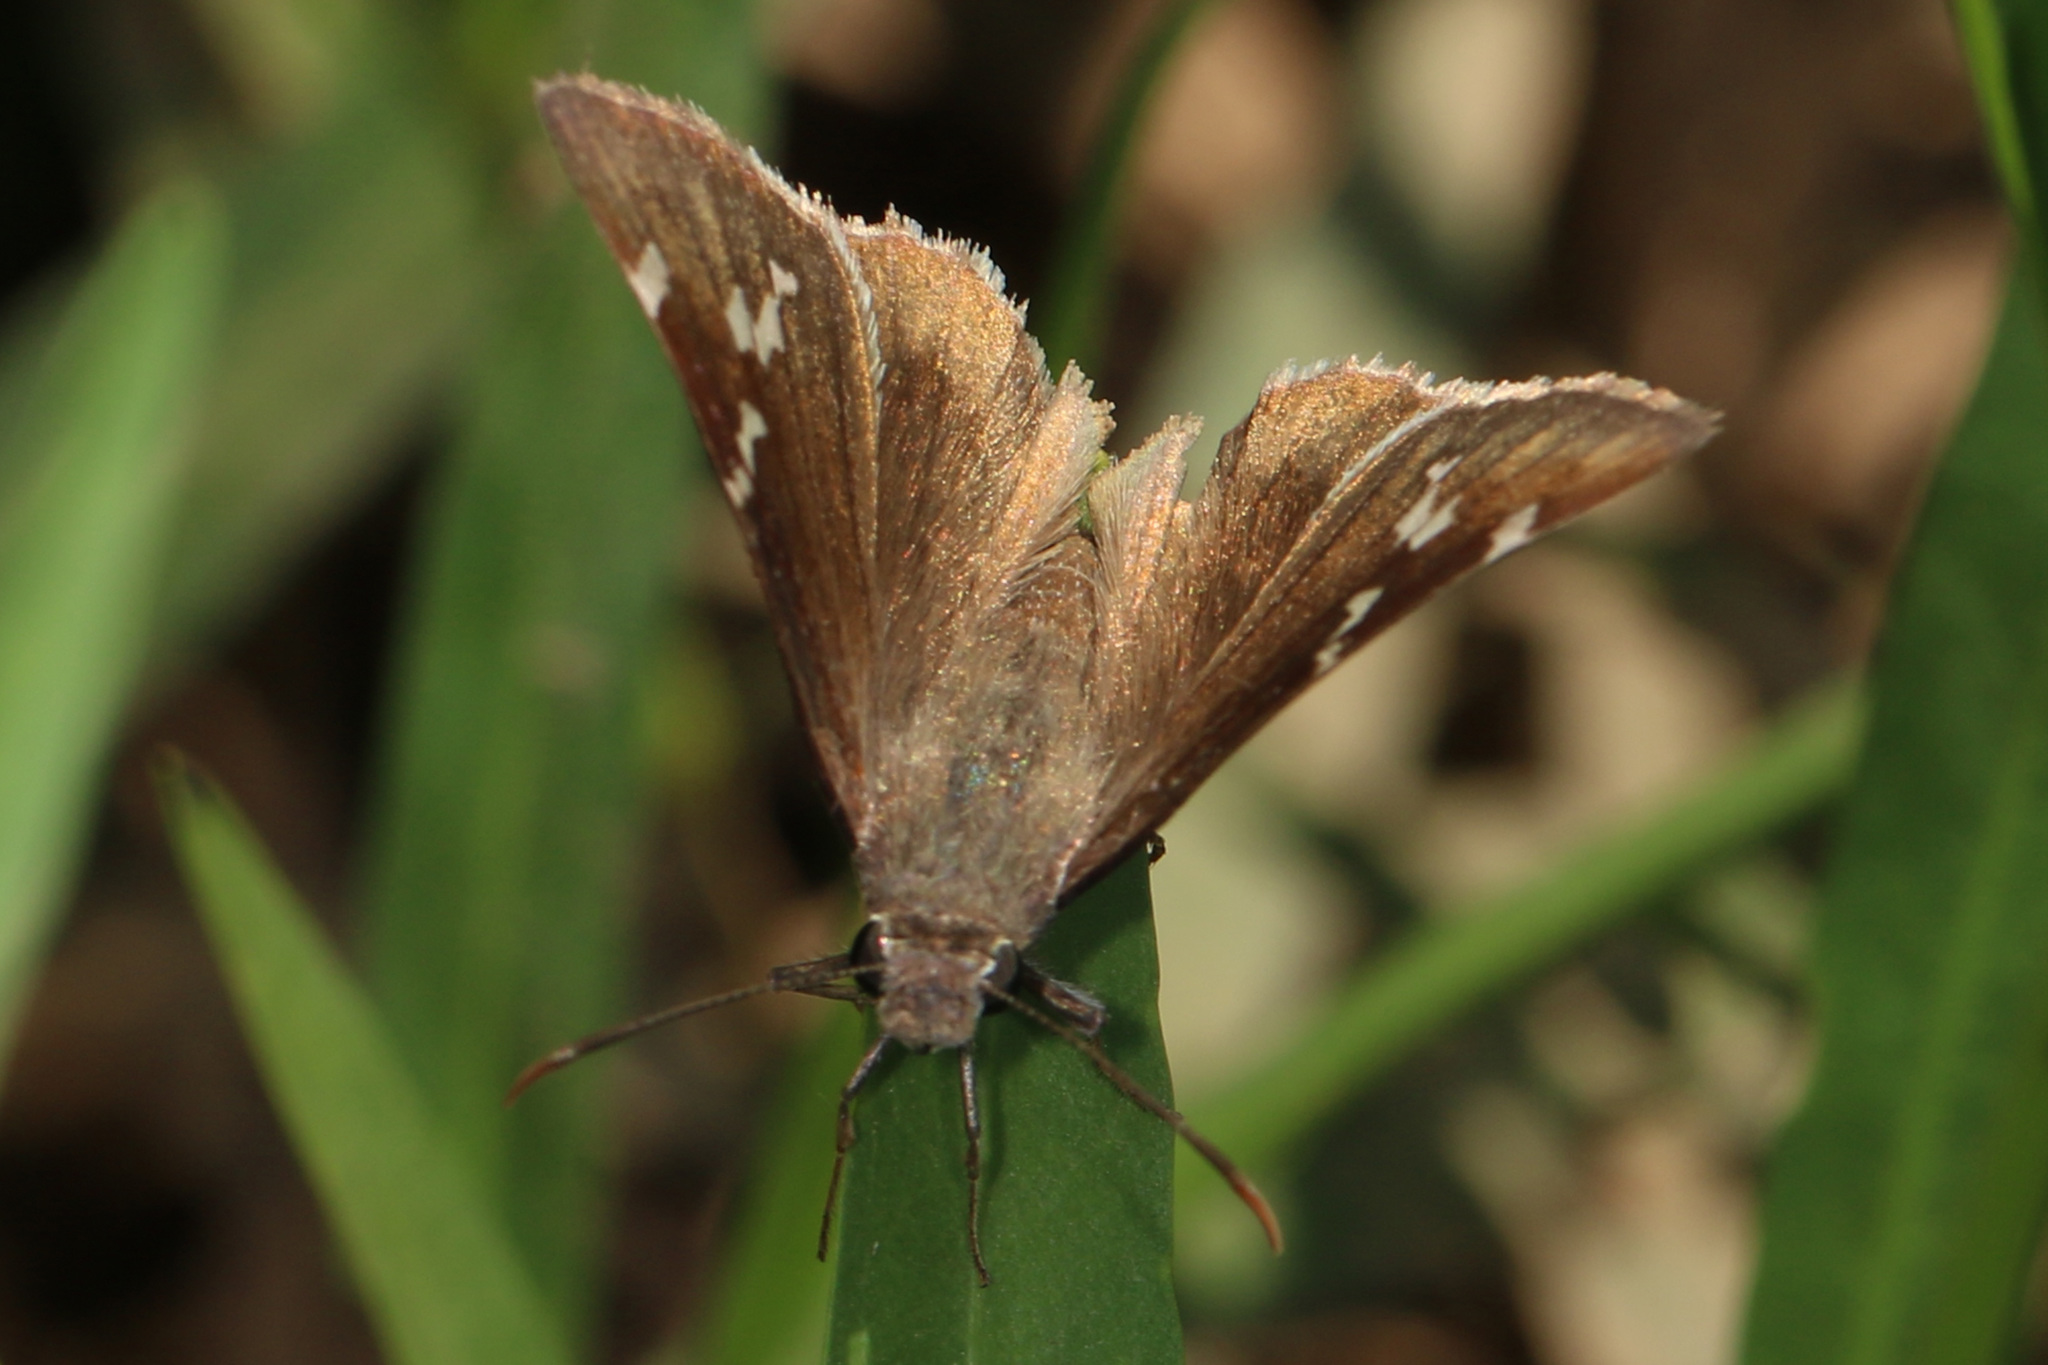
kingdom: Animalia
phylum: Arthropoda
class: Insecta
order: Lepidoptera
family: Hesperiidae
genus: Thorybes
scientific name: Thorybes daunus
